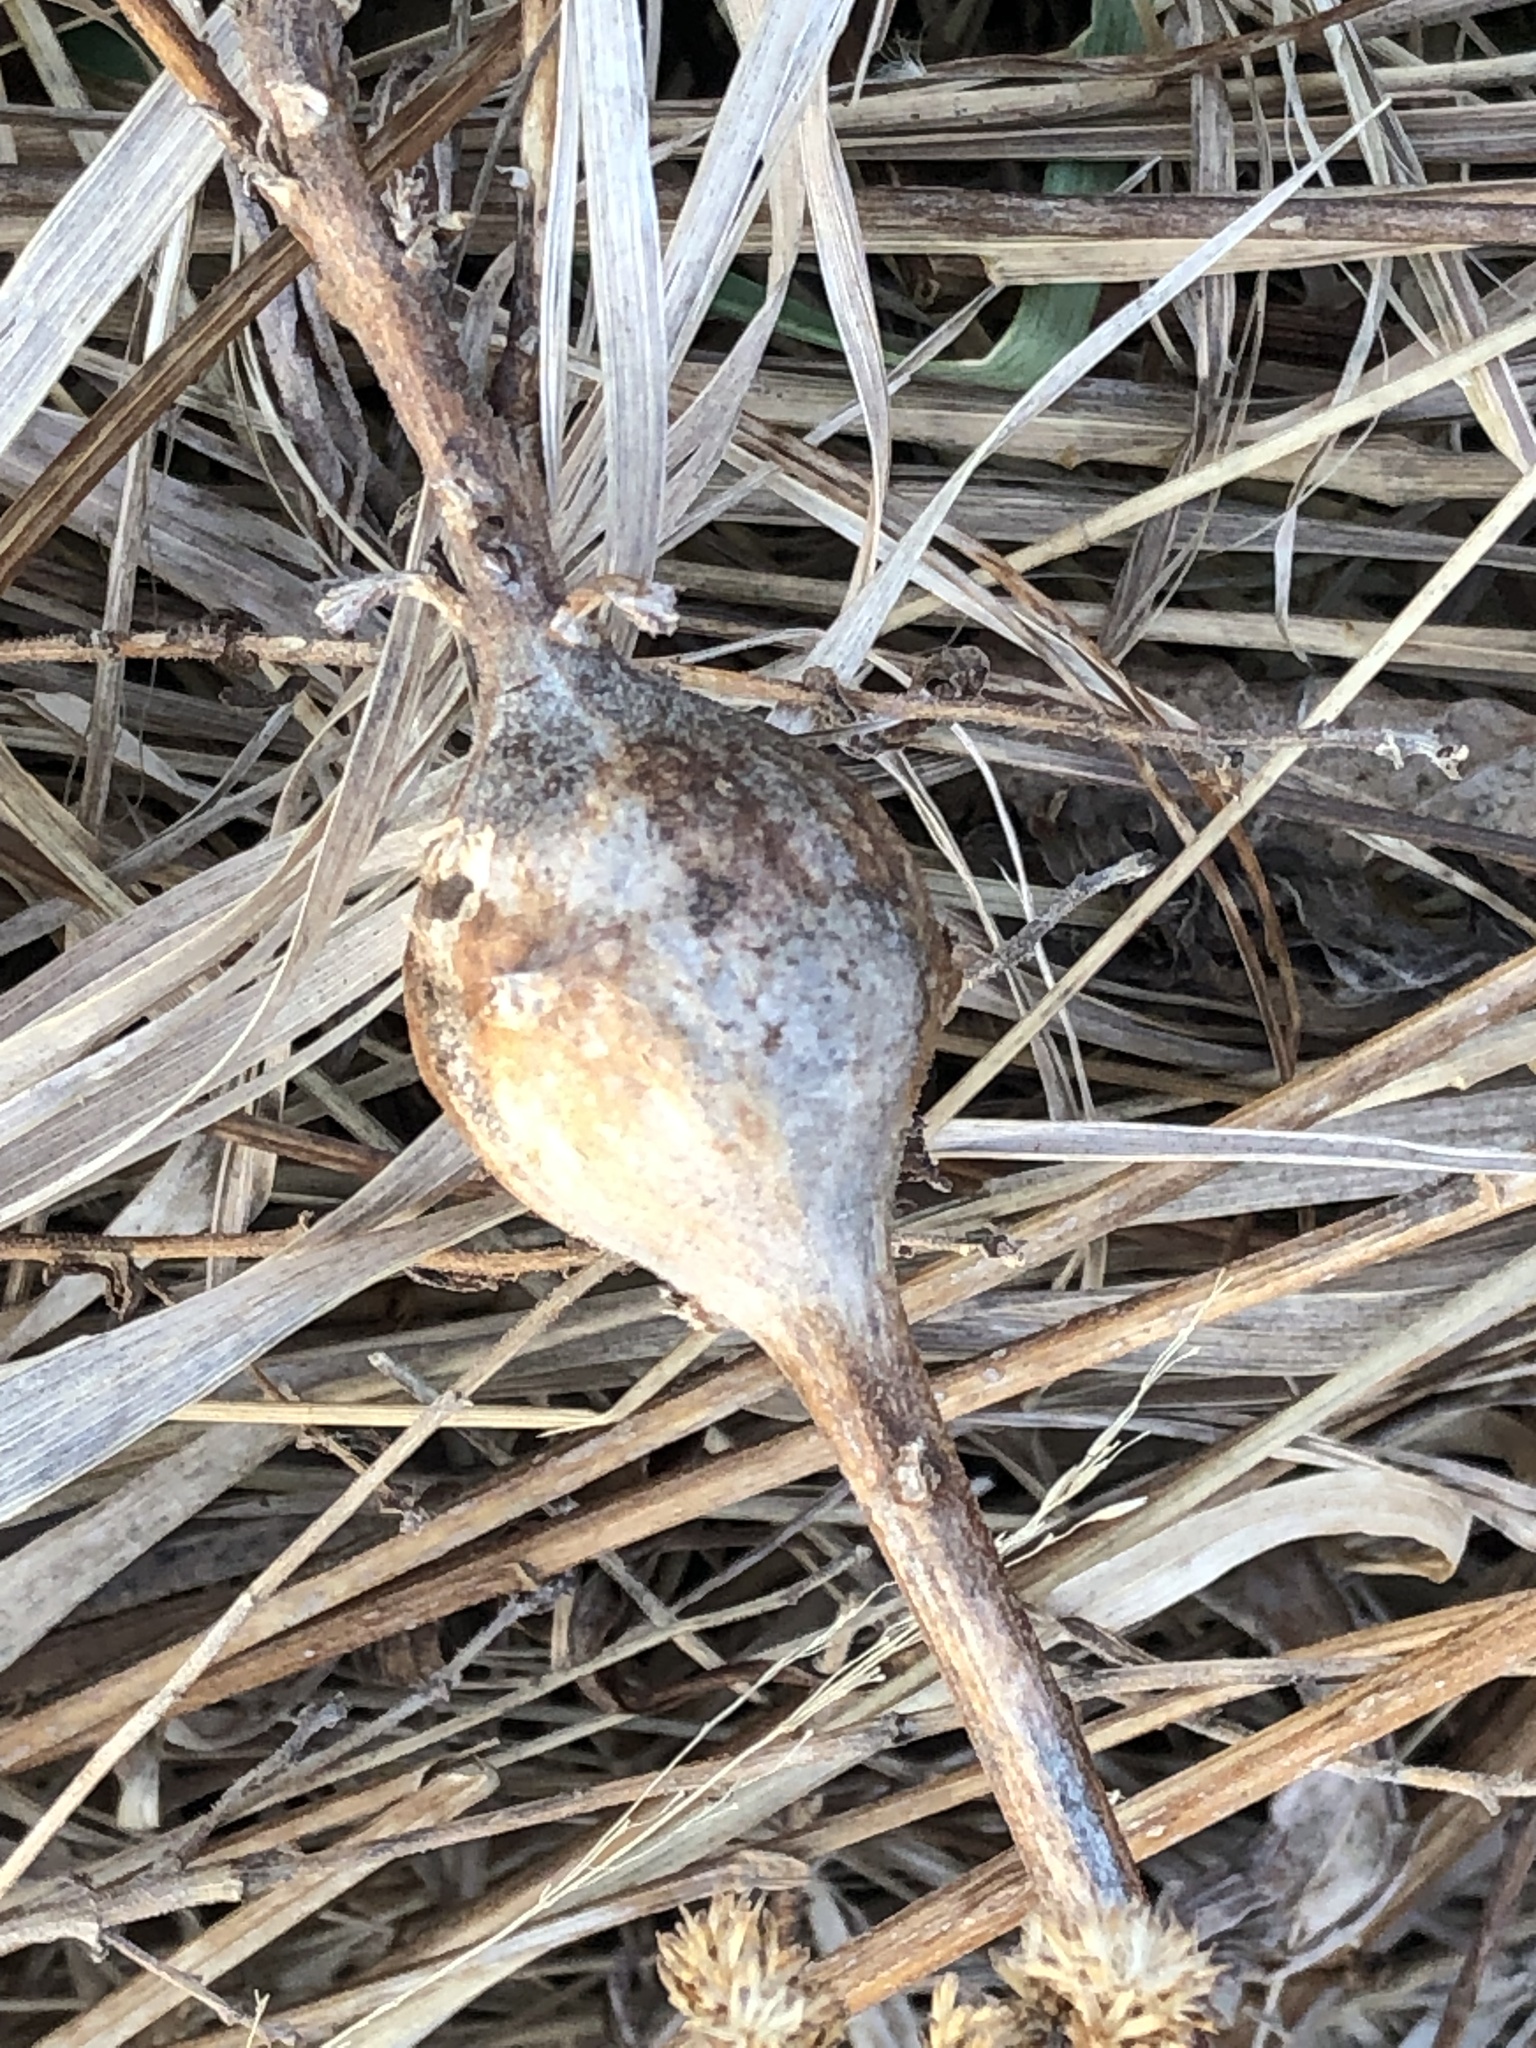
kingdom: Animalia
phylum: Arthropoda
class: Insecta
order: Diptera
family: Tephritidae
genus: Eurosta
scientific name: Eurosta solidaginis
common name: Goldenrod gall fly
